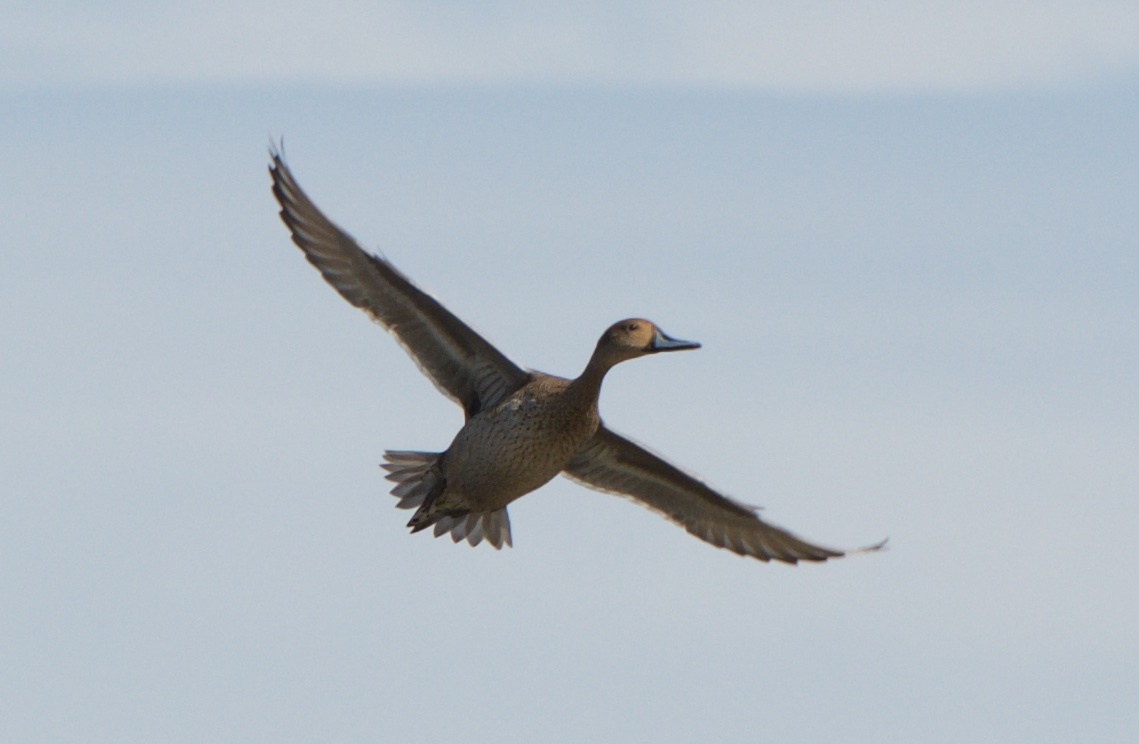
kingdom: Animalia
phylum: Chordata
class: Aves
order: Anseriformes
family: Anatidae
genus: Anas
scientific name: Anas acuta
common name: Northern pintail
